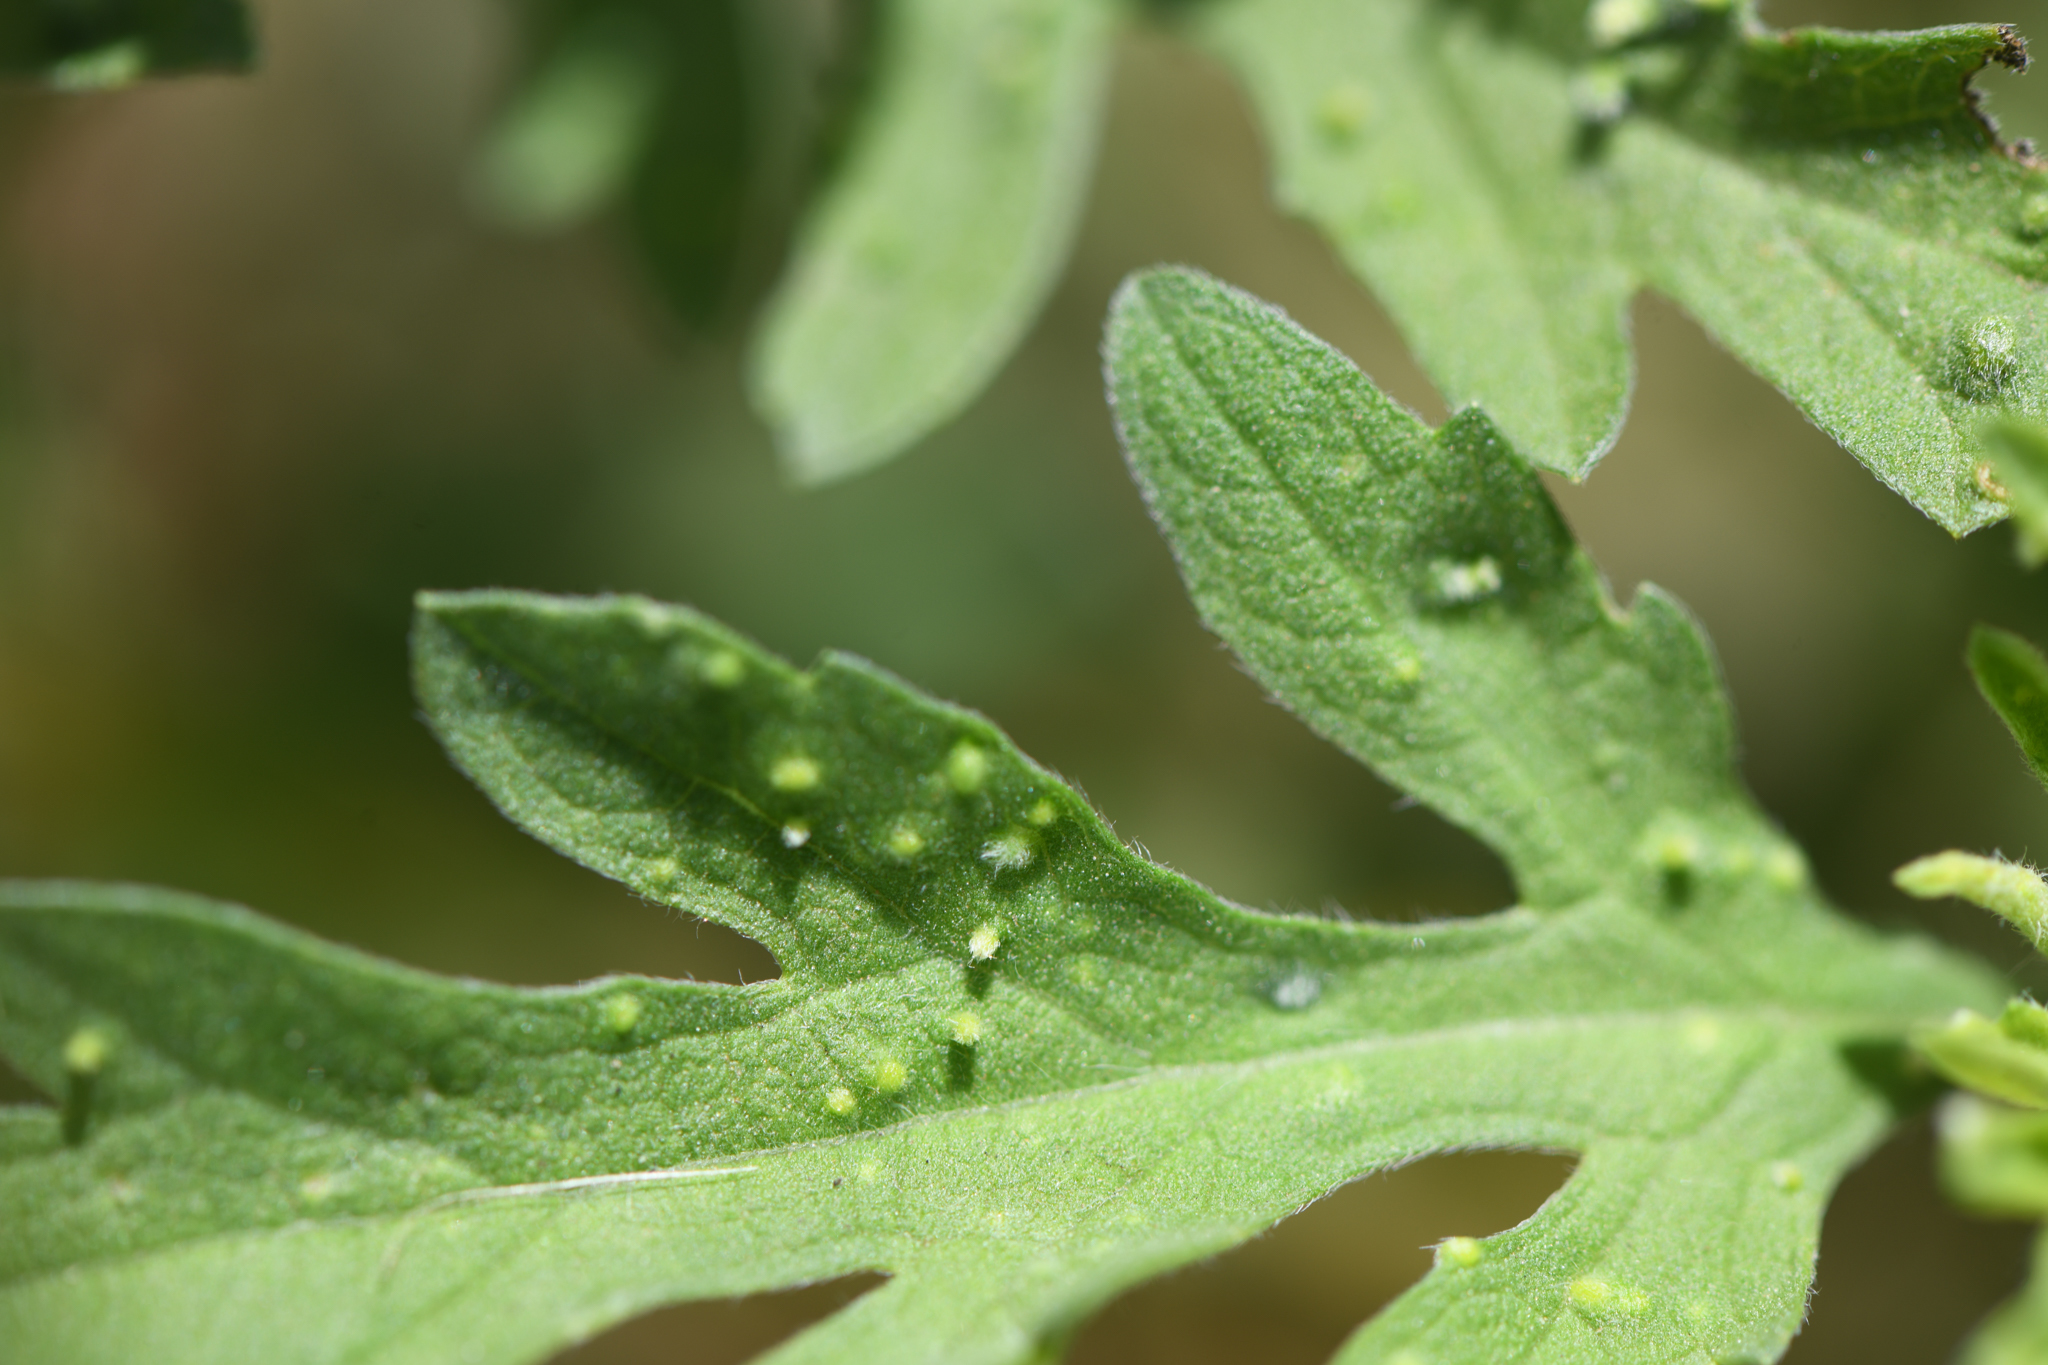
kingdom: Animalia
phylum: Arthropoda
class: Arachnida
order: Trombidiformes
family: Eriophyidae
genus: Aceria
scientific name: Aceria
